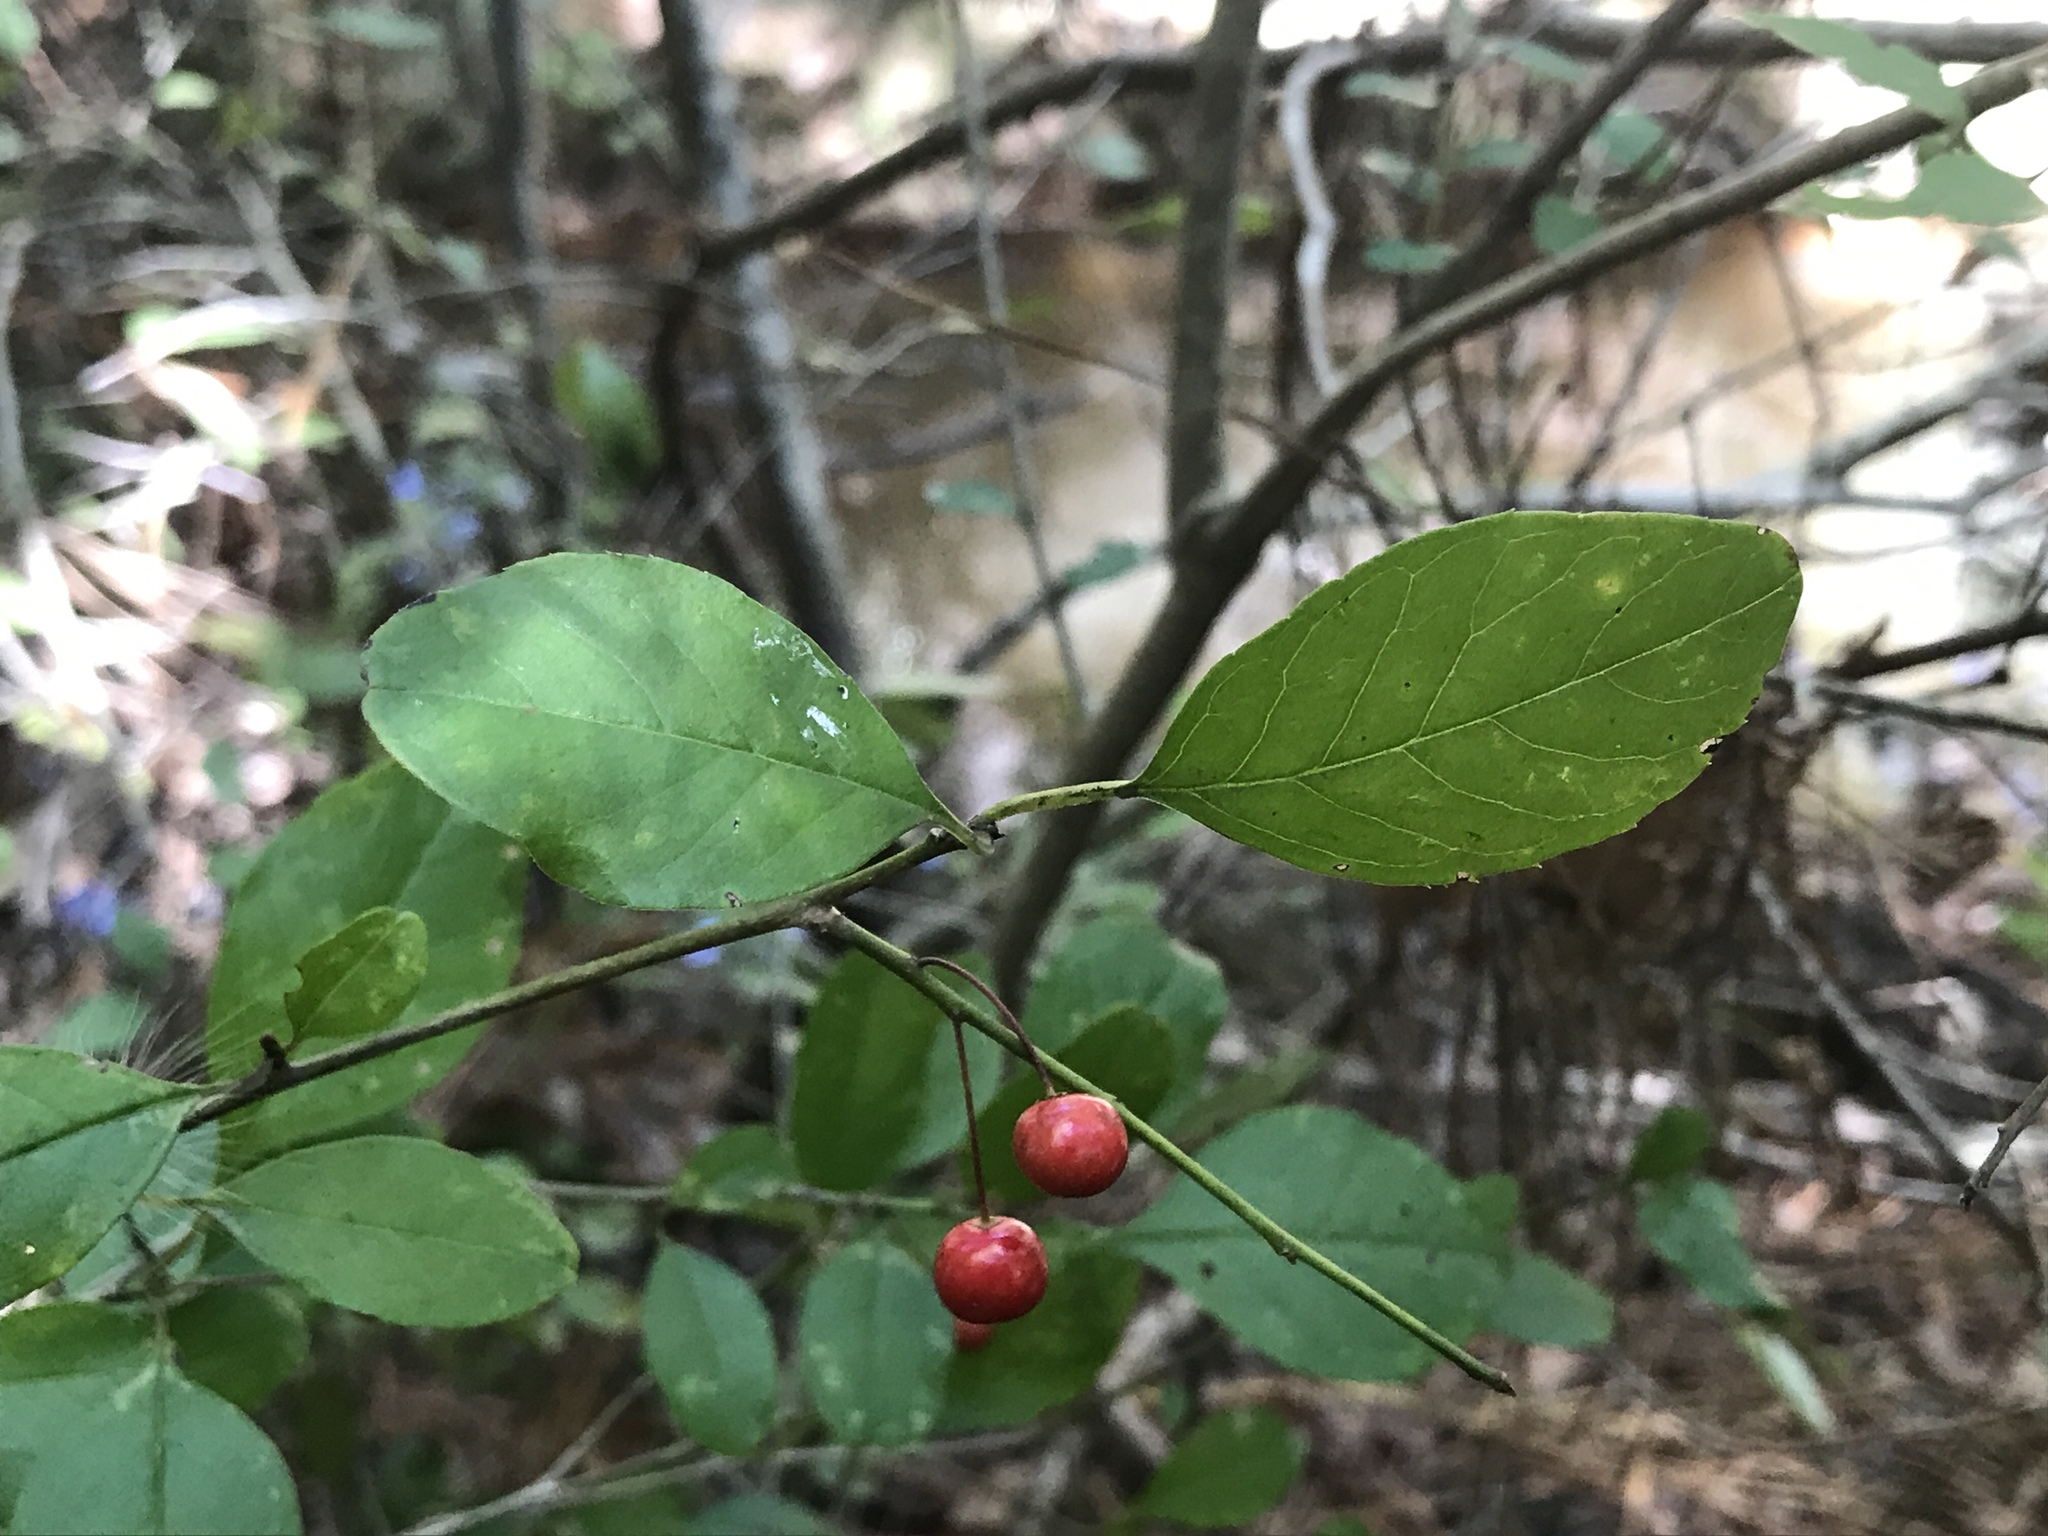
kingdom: Plantae
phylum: Tracheophyta
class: Magnoliopsida
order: Aquifoliales
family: Aquifoliaceae
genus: Ilex
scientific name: Ilex longipes
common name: Georgia holly
